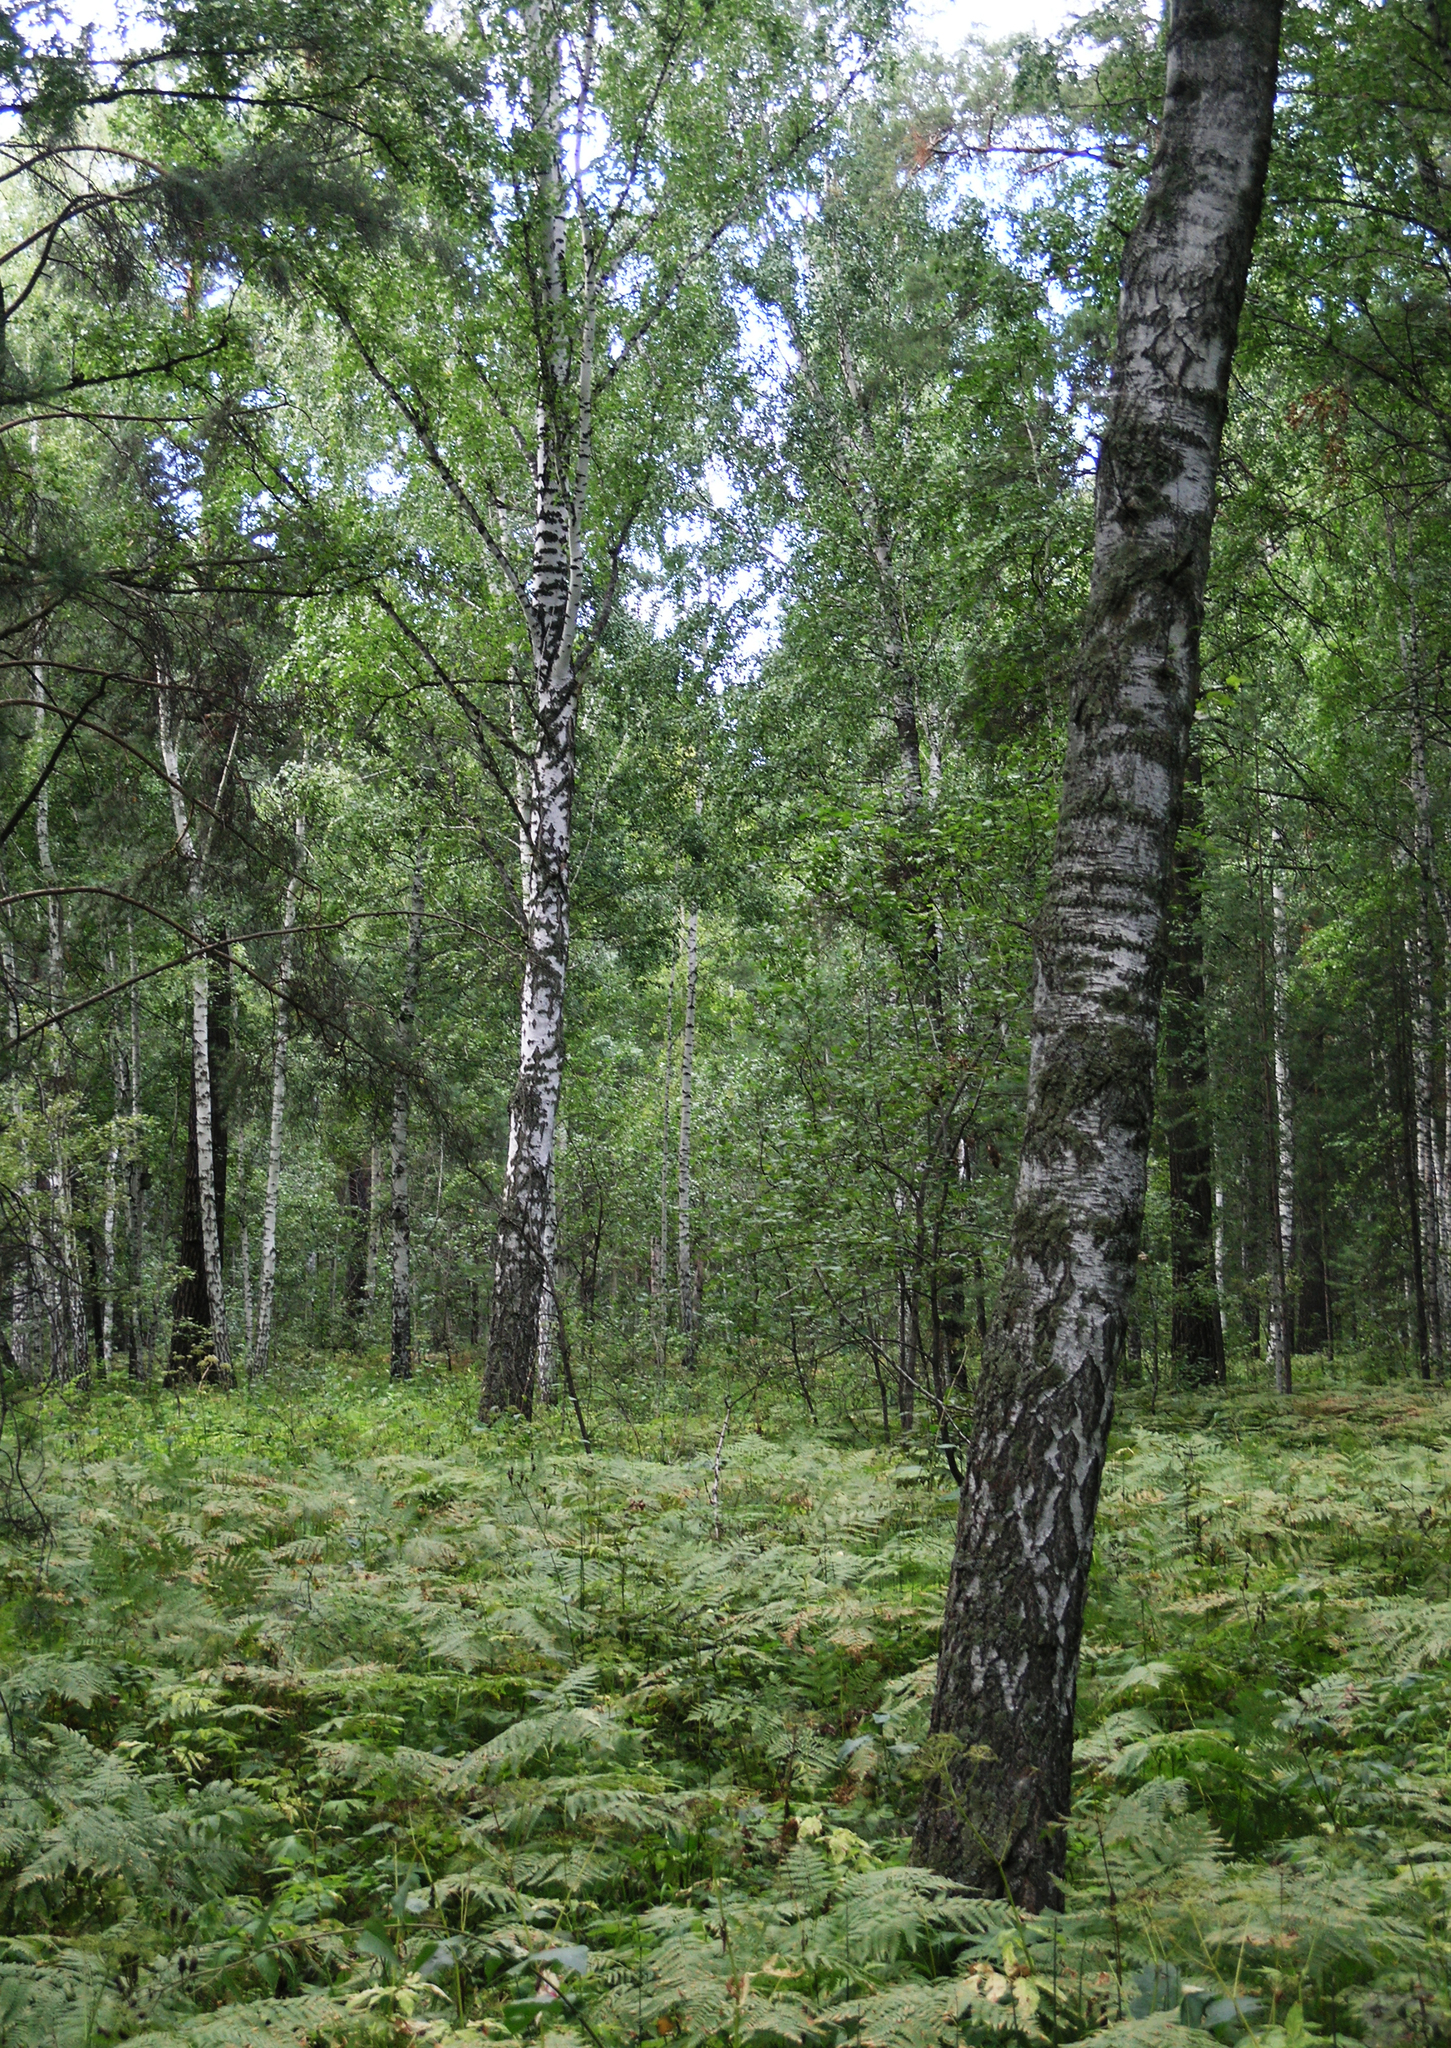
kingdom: Plantae
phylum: Tracheophyta
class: Polypodiopsida
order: Polypodiales
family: Dennstaedtiaceae
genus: Pteridium
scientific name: Pteridium aquilinum
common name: Bracken
